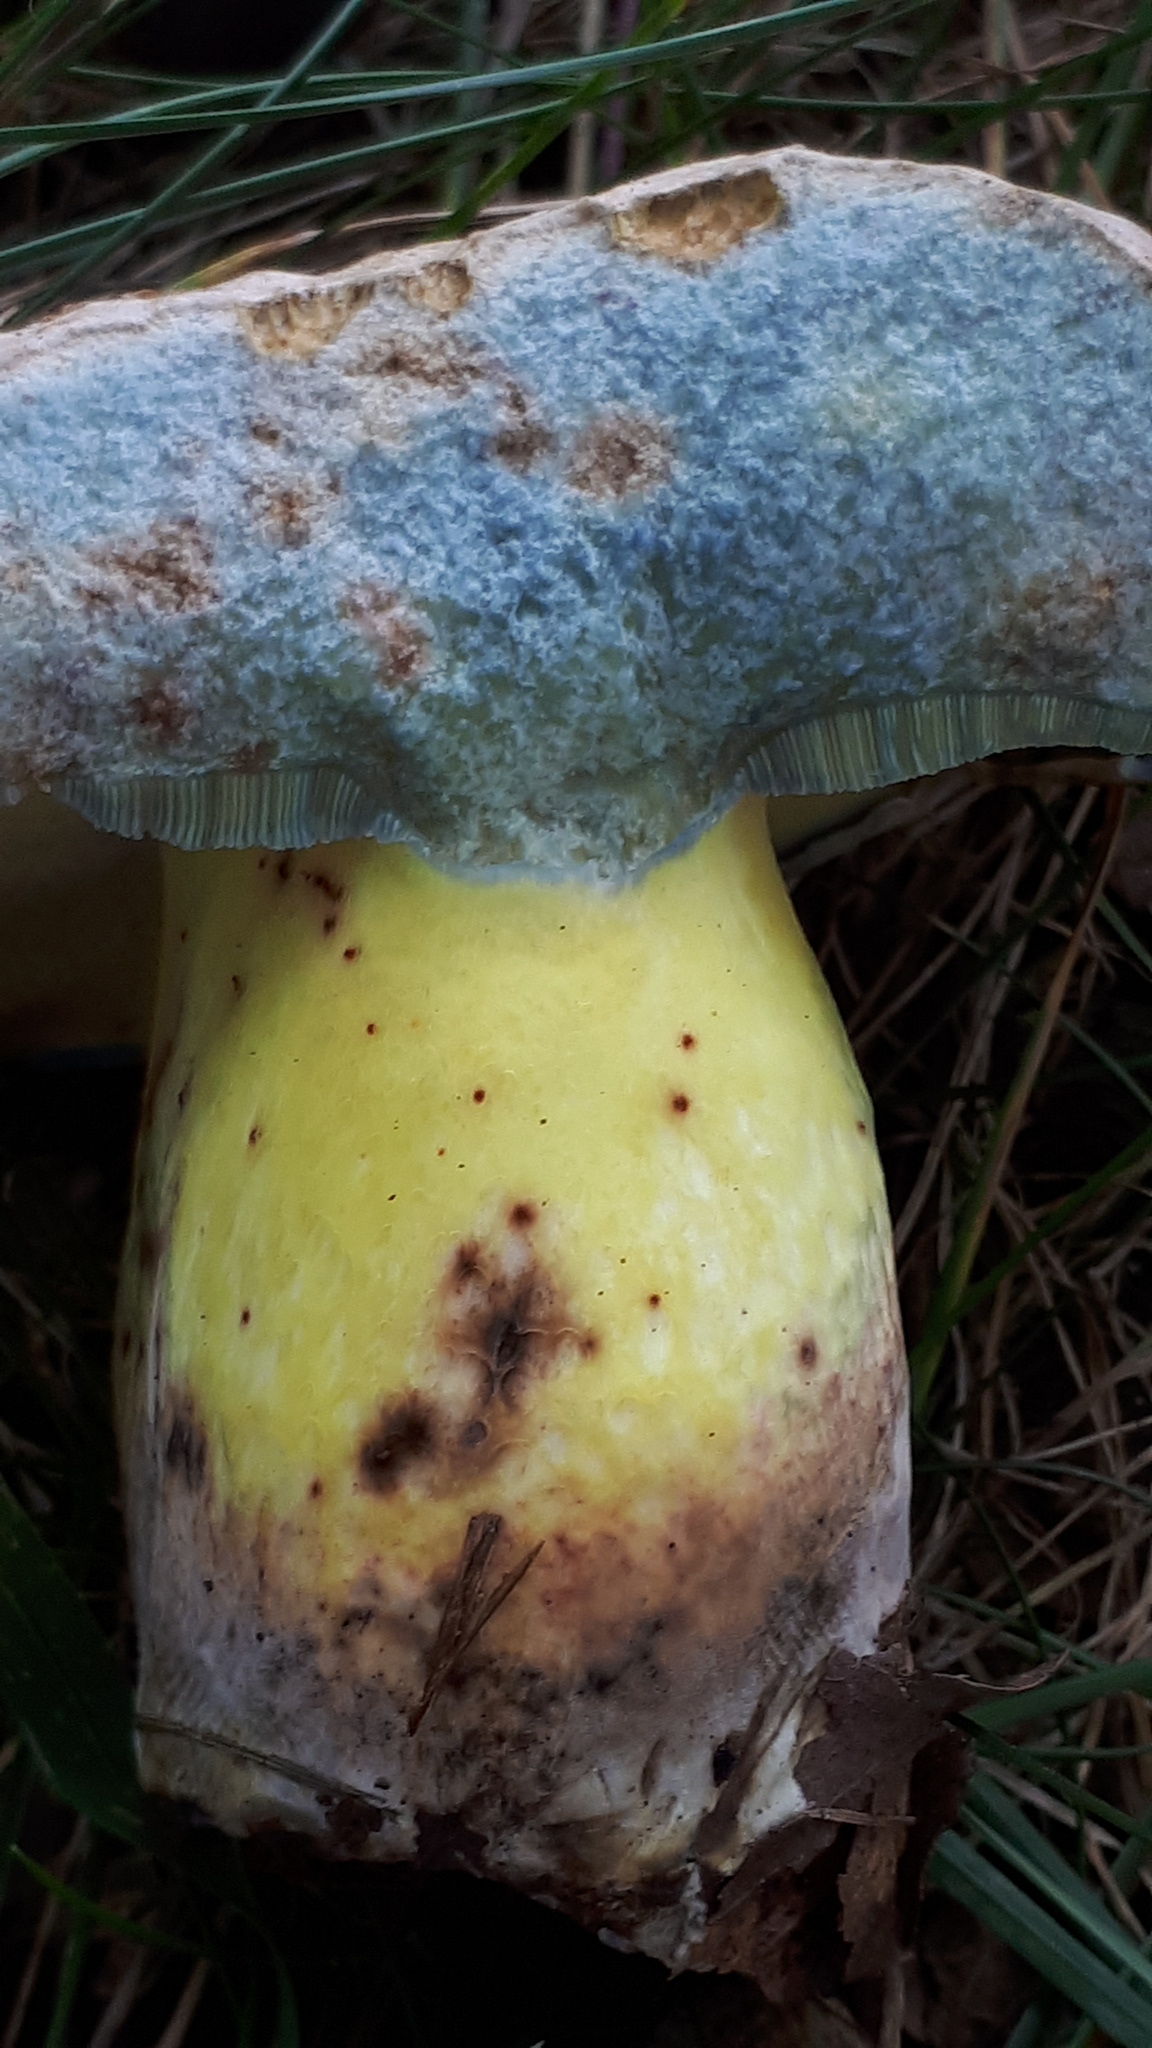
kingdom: Fungi
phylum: Basidiomycota
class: Agaricomycetes
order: Boletales
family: Boletaceae
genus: Caloboletus
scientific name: Caloboletus radicans
